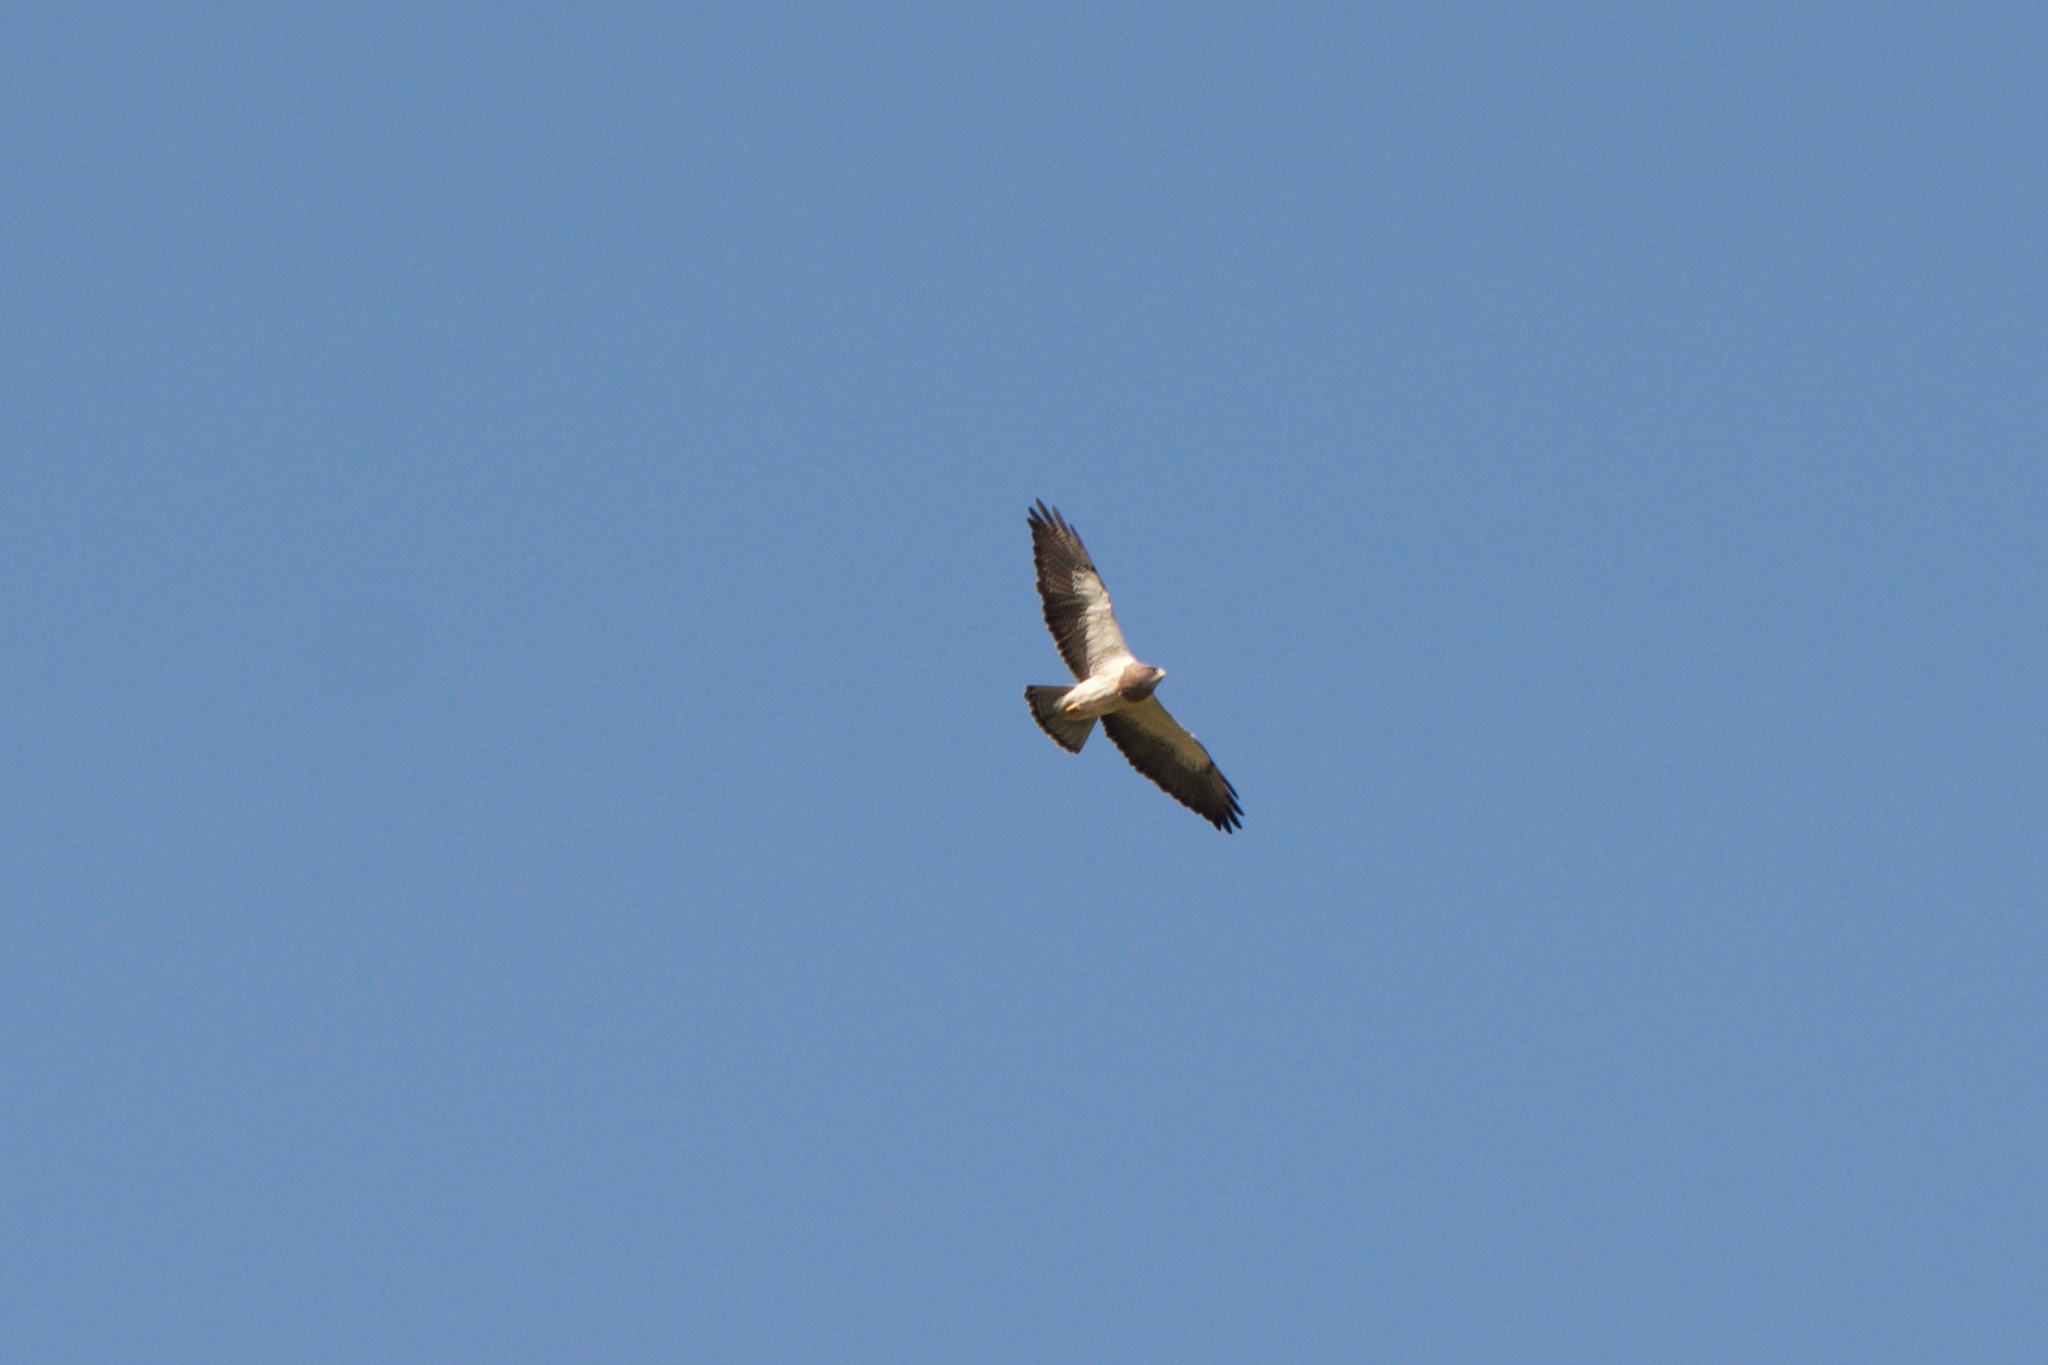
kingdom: Animalia
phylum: Chordata
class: Aves
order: Accipitriformes
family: Accipitridae
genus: Buteo
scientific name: Buteo swainsoni
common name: Swainson's hawk
